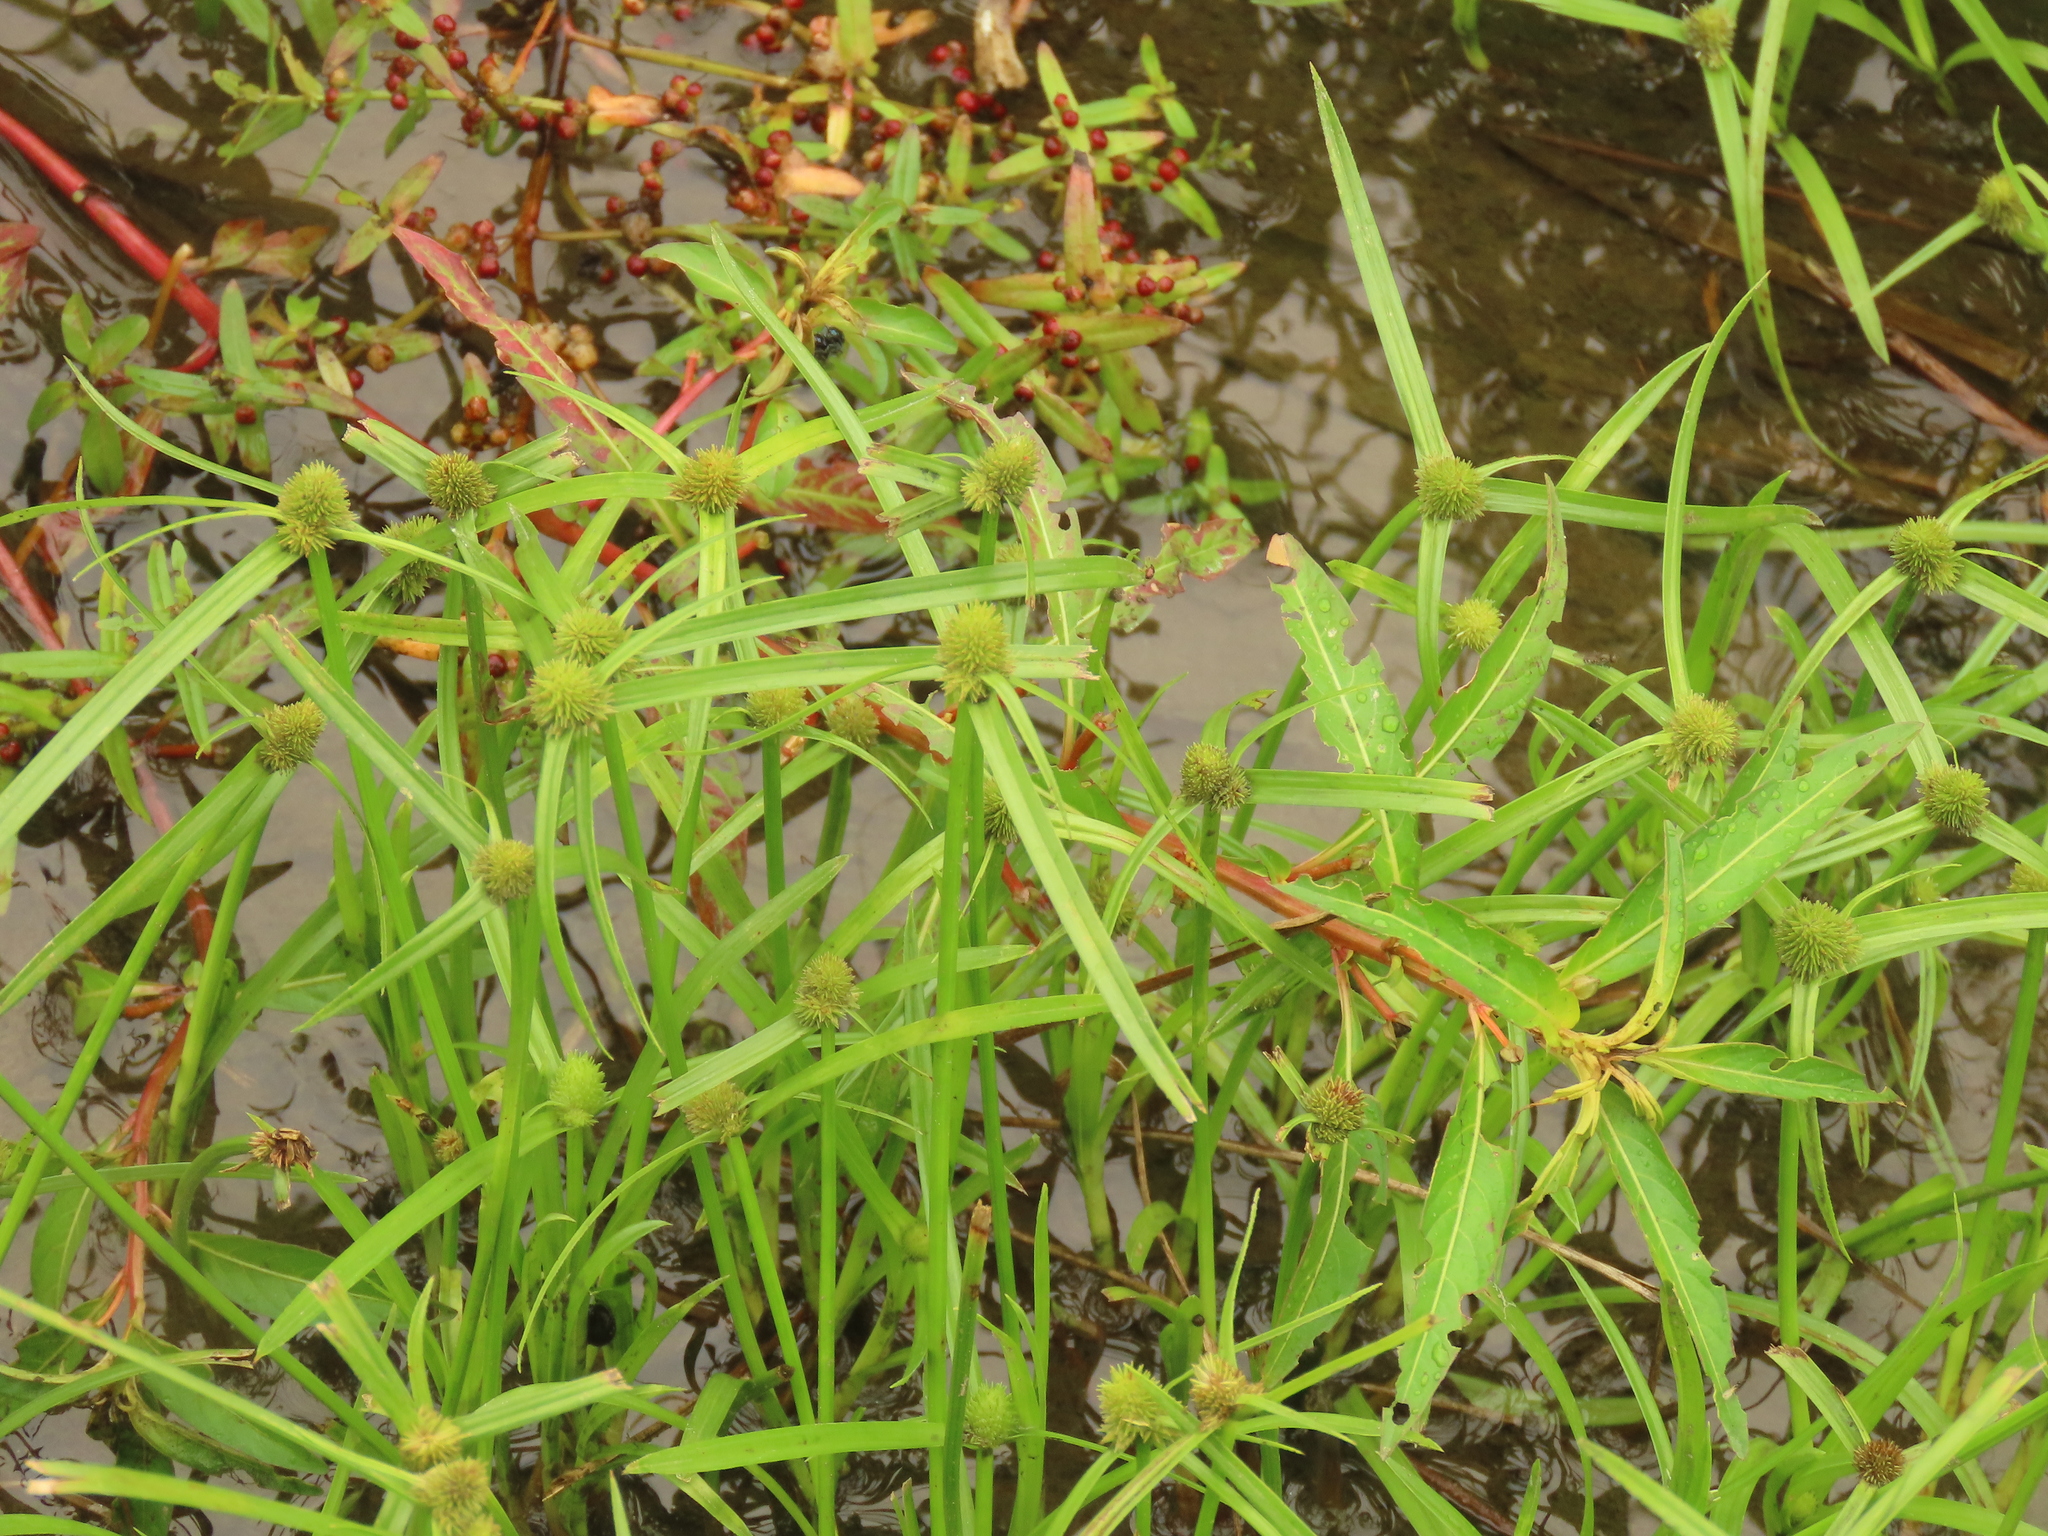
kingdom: Plantae
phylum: Tracheophyta
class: Liliopsida
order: Poales
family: Cyperaceae
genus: Cyperus
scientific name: Cyperus brevifolius
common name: Globe kyllinga
